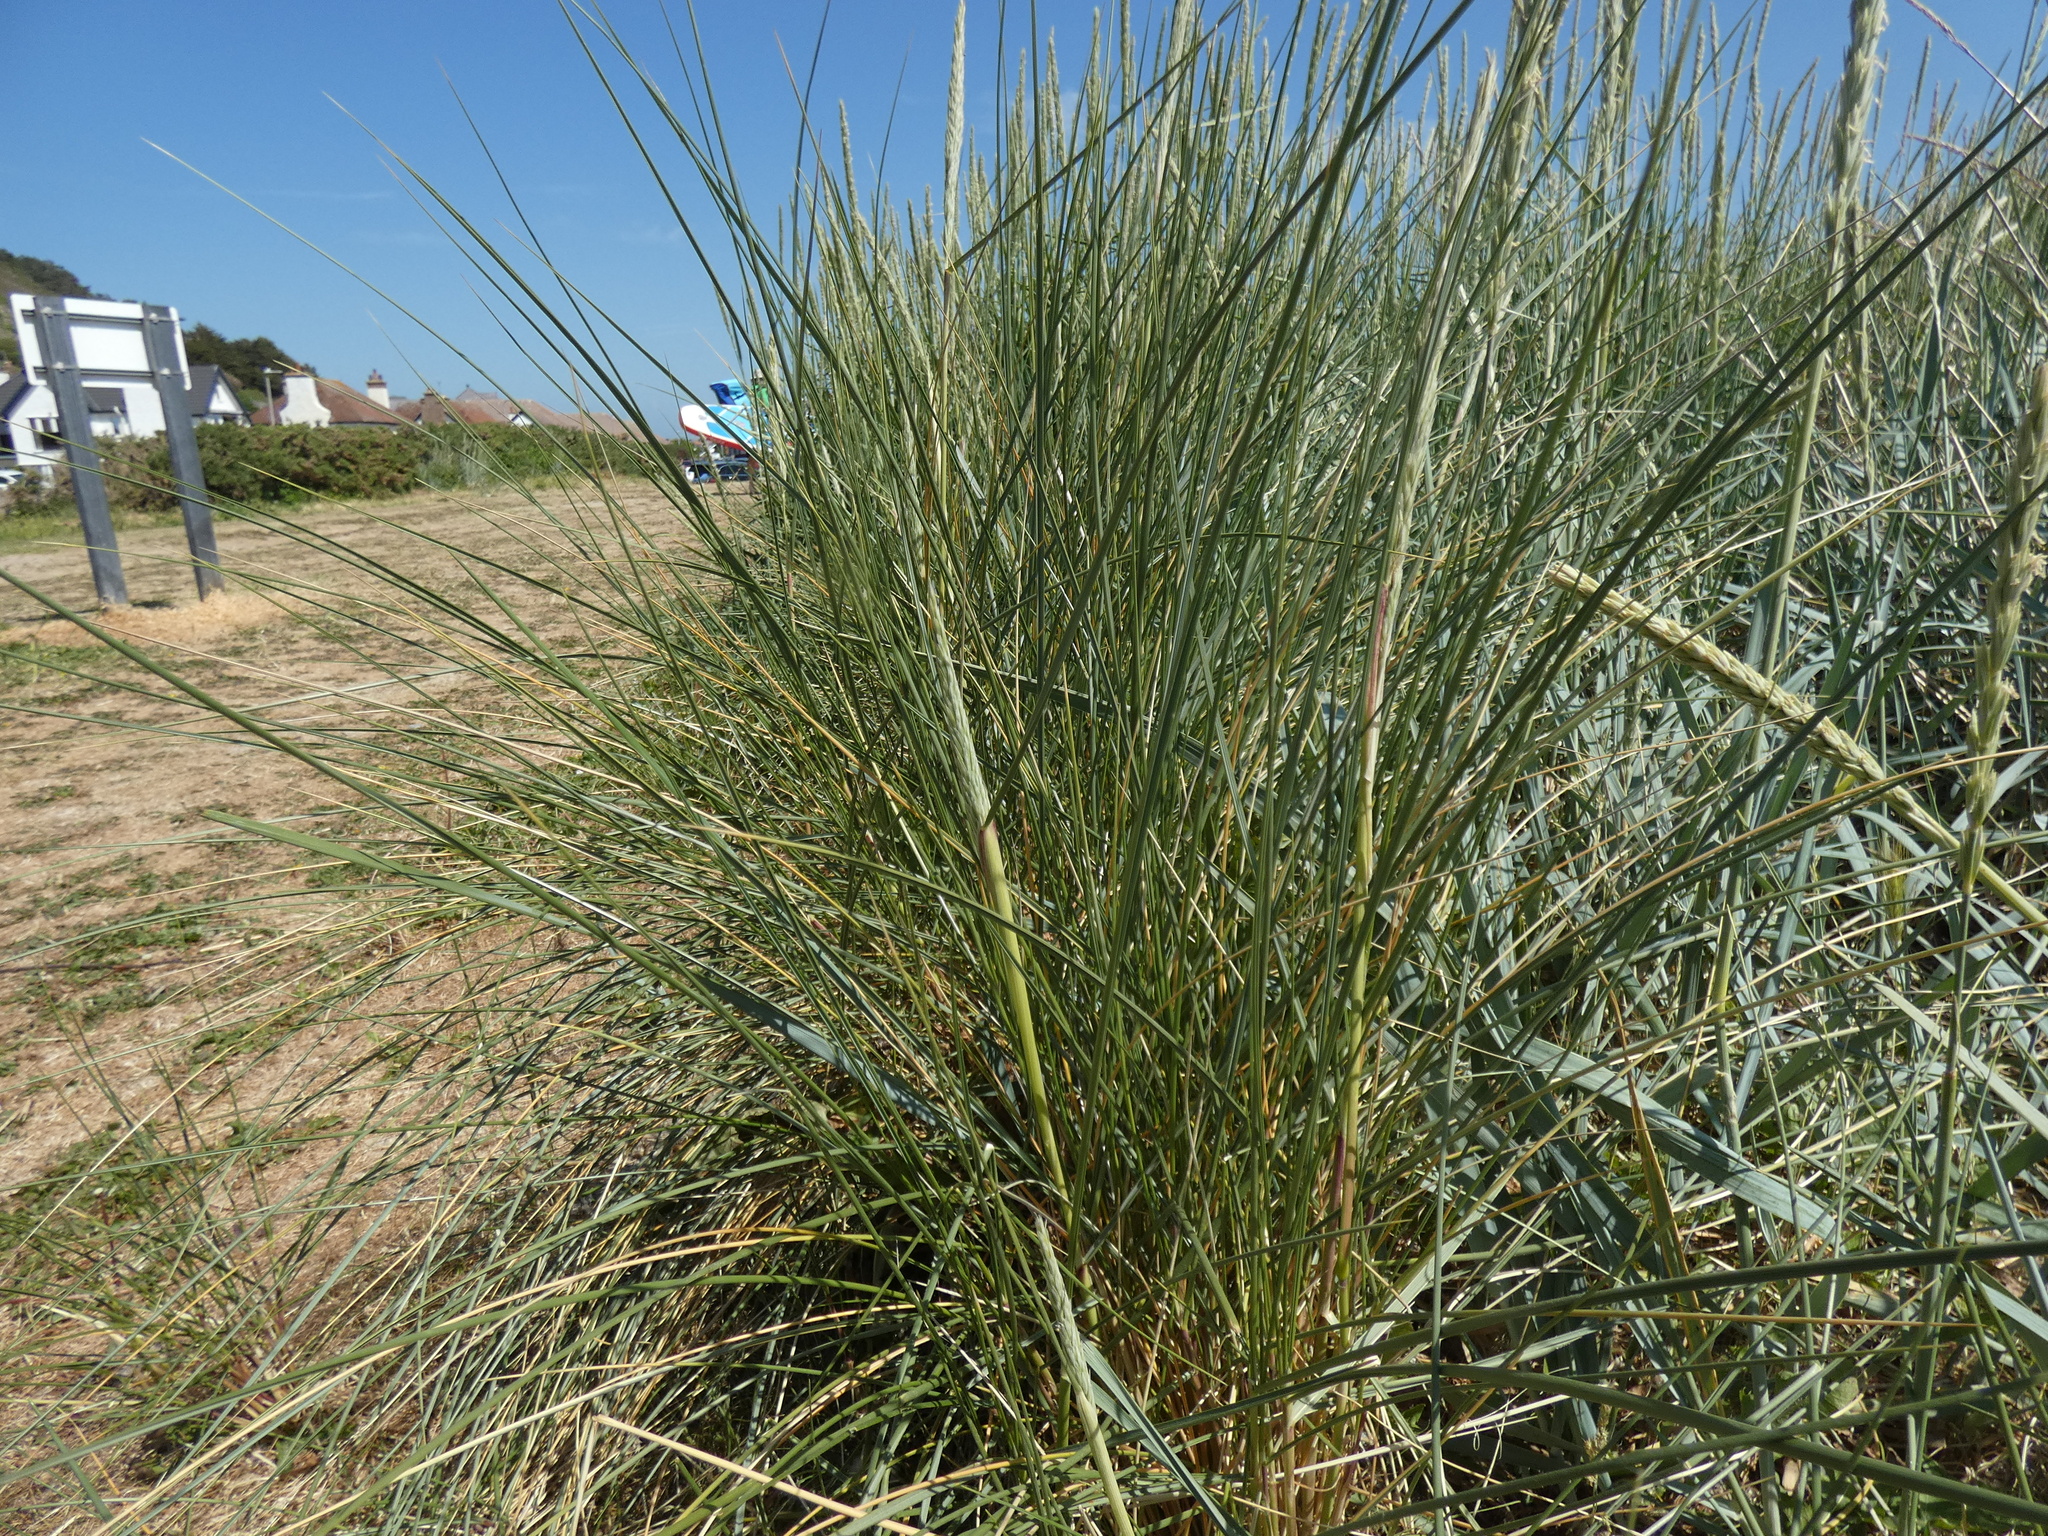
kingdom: Plantae
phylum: Tracheophyta
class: Liliopsida
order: Poales
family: Poaceae
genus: Calamagrostis
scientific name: Calamagrostis arenaria
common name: European beachgrass
